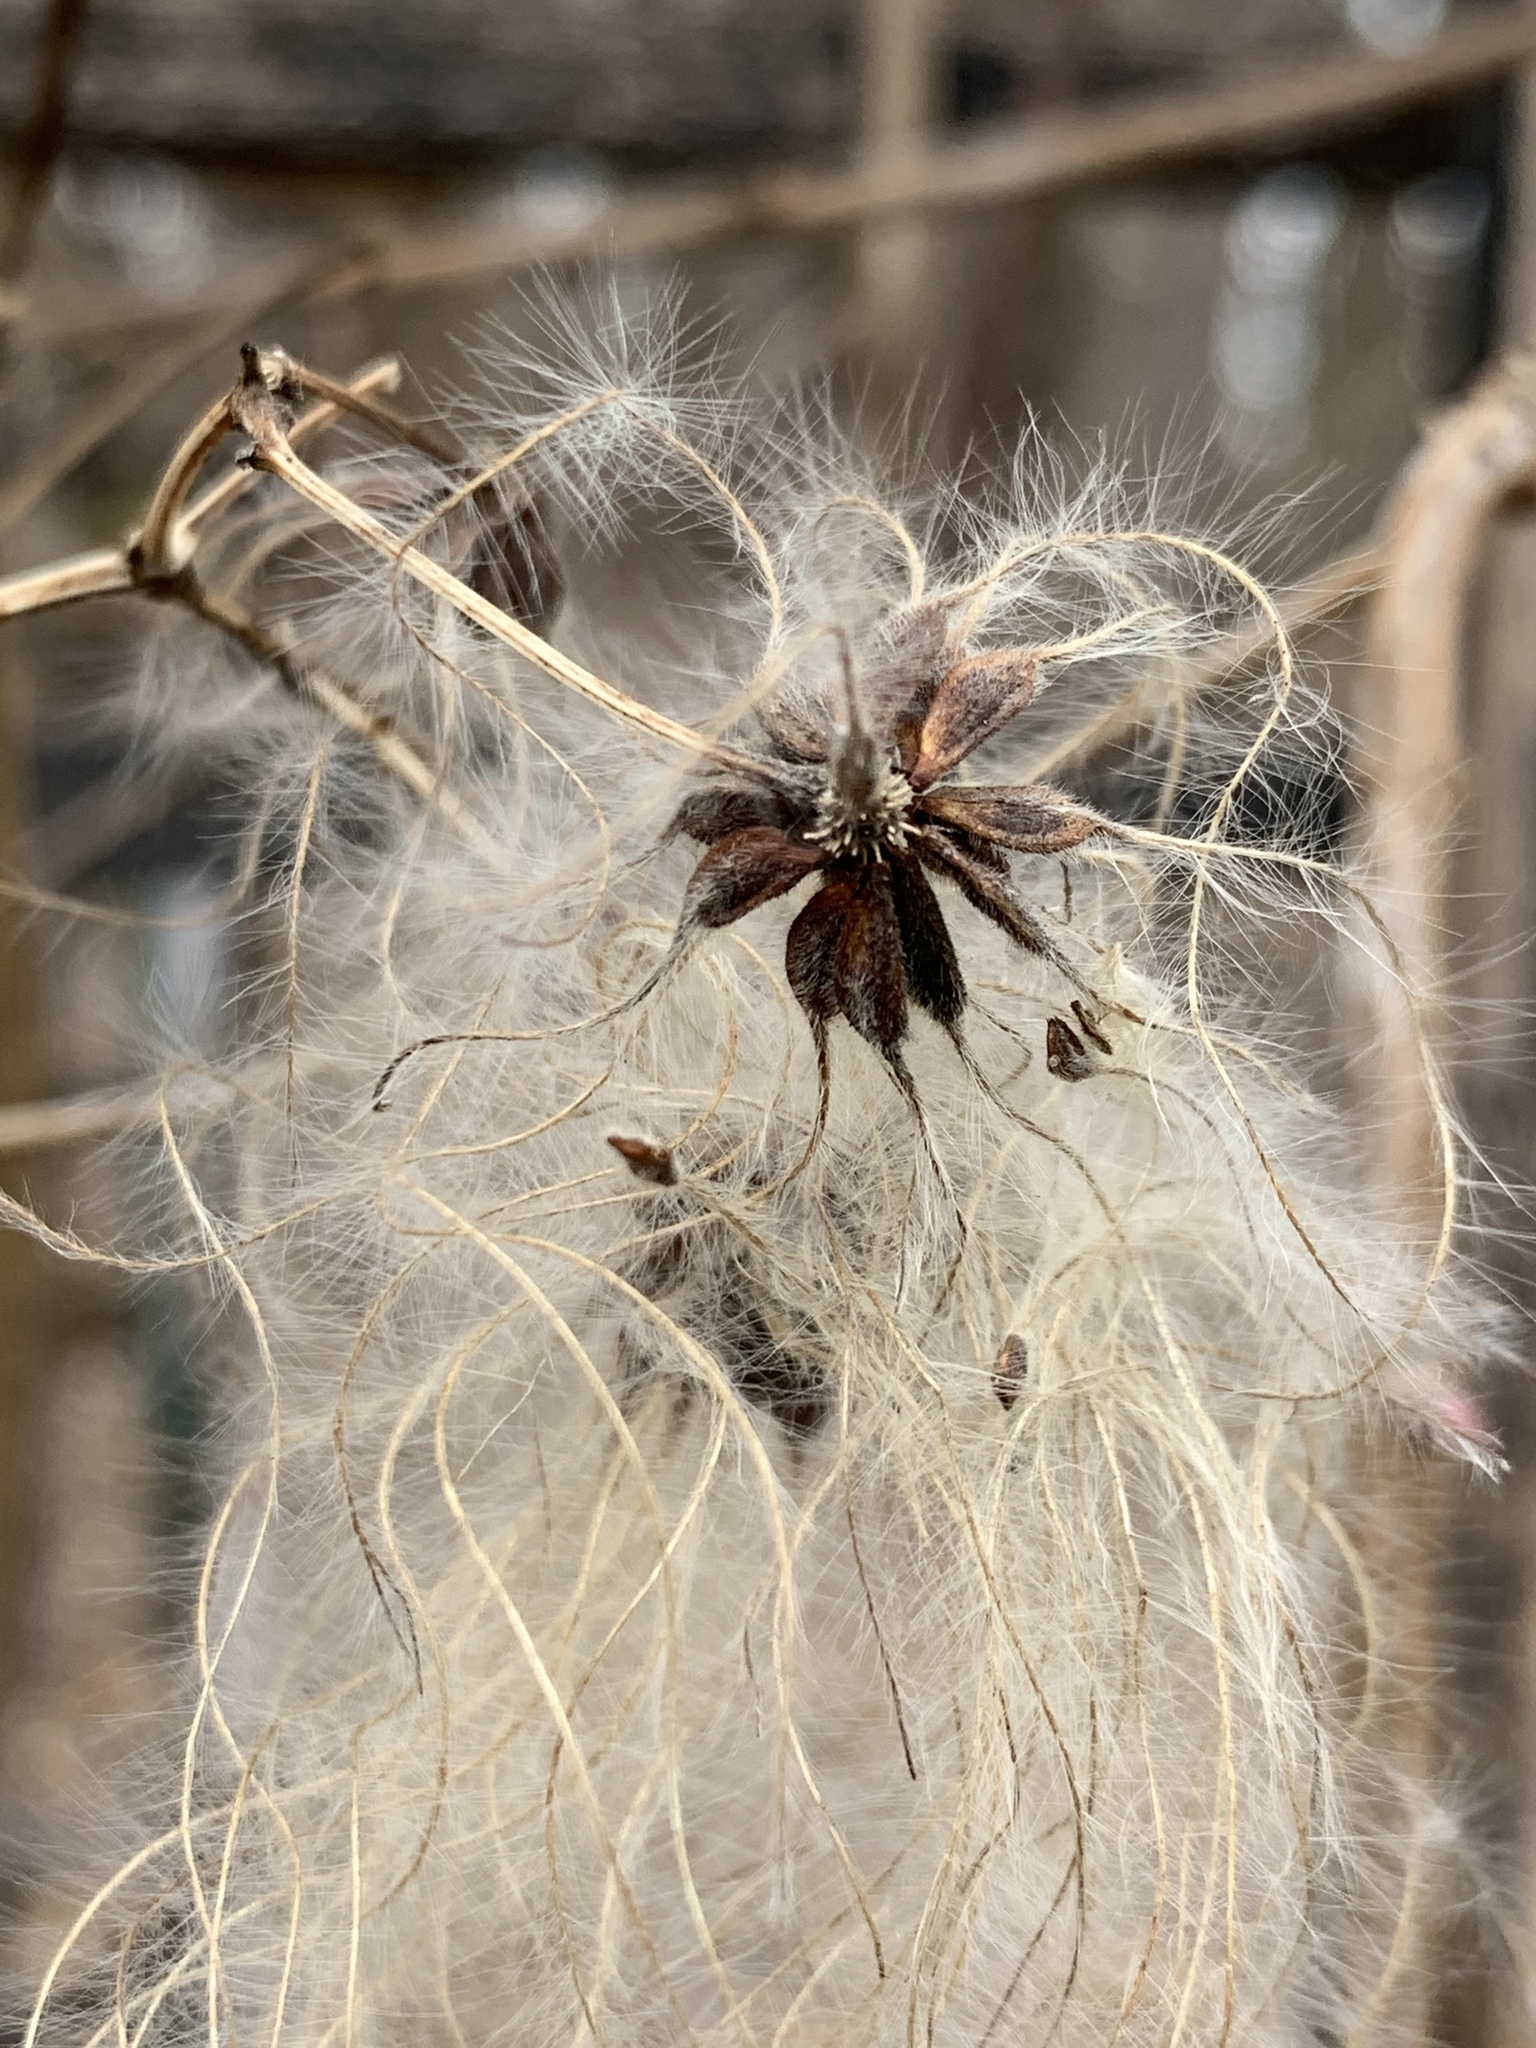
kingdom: Plantae
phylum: Tracheophyta
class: Magnoliopsida
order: Ranunculales
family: Ranunculaceae
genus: Clematis
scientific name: Clematis virginiana
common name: Virgin's-bower
